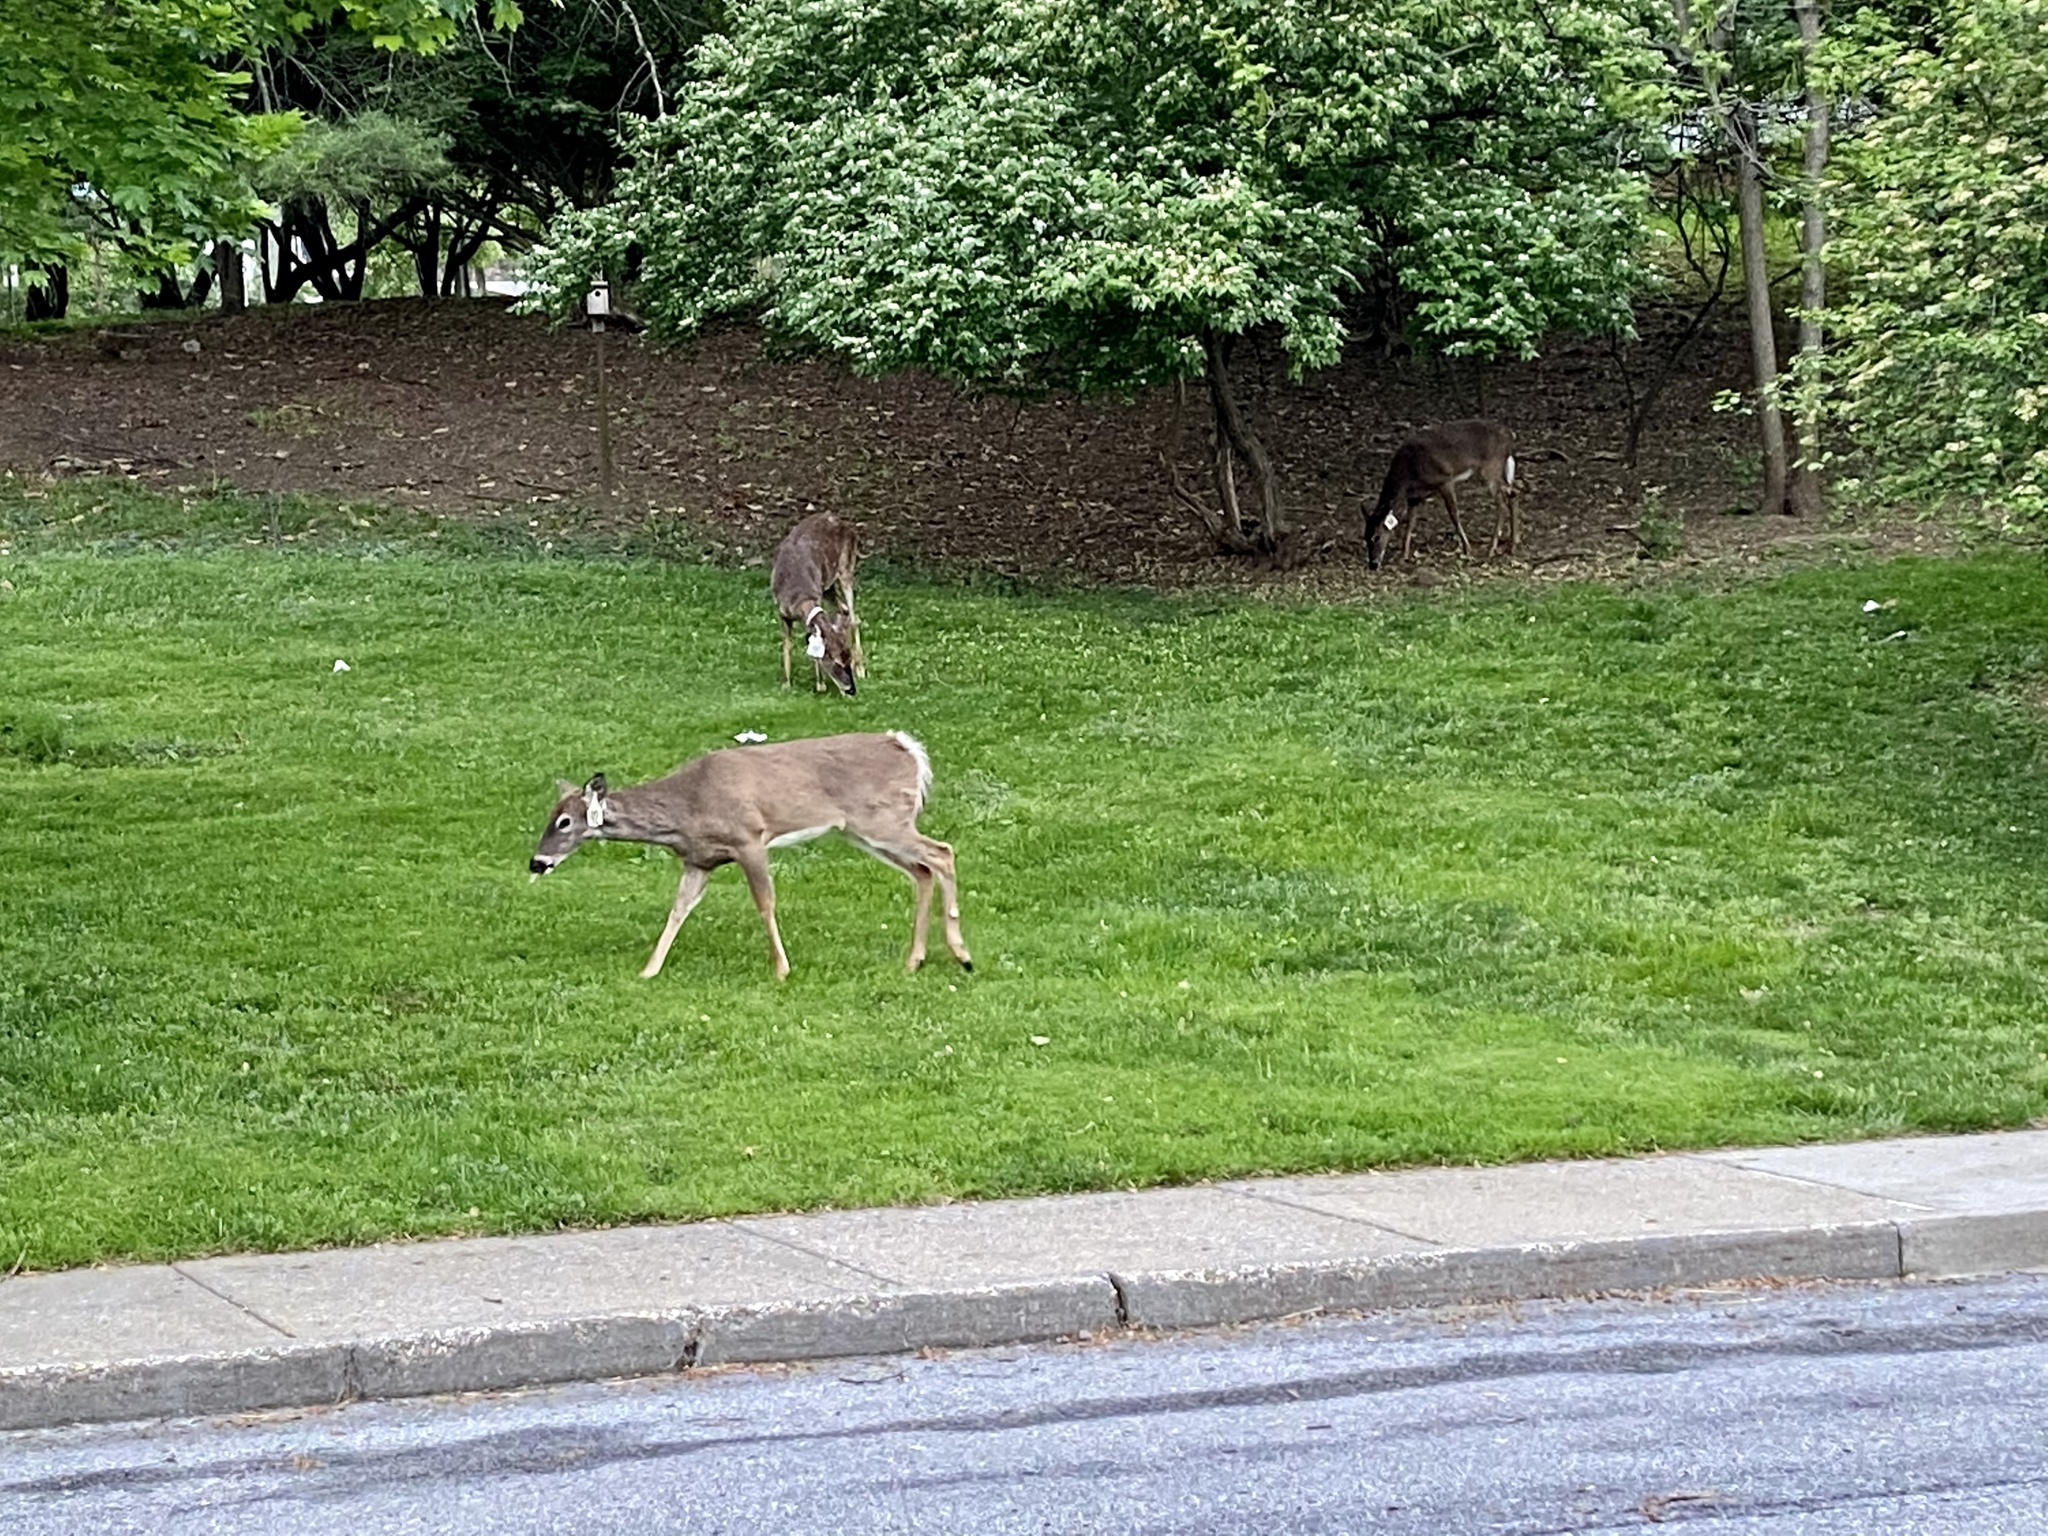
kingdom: Animalia
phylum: Chordata
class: Mammalia
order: Artiodactyla
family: Cervidae
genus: Odocoileus
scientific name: Odocoileus virginianus
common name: White-tailed deer
